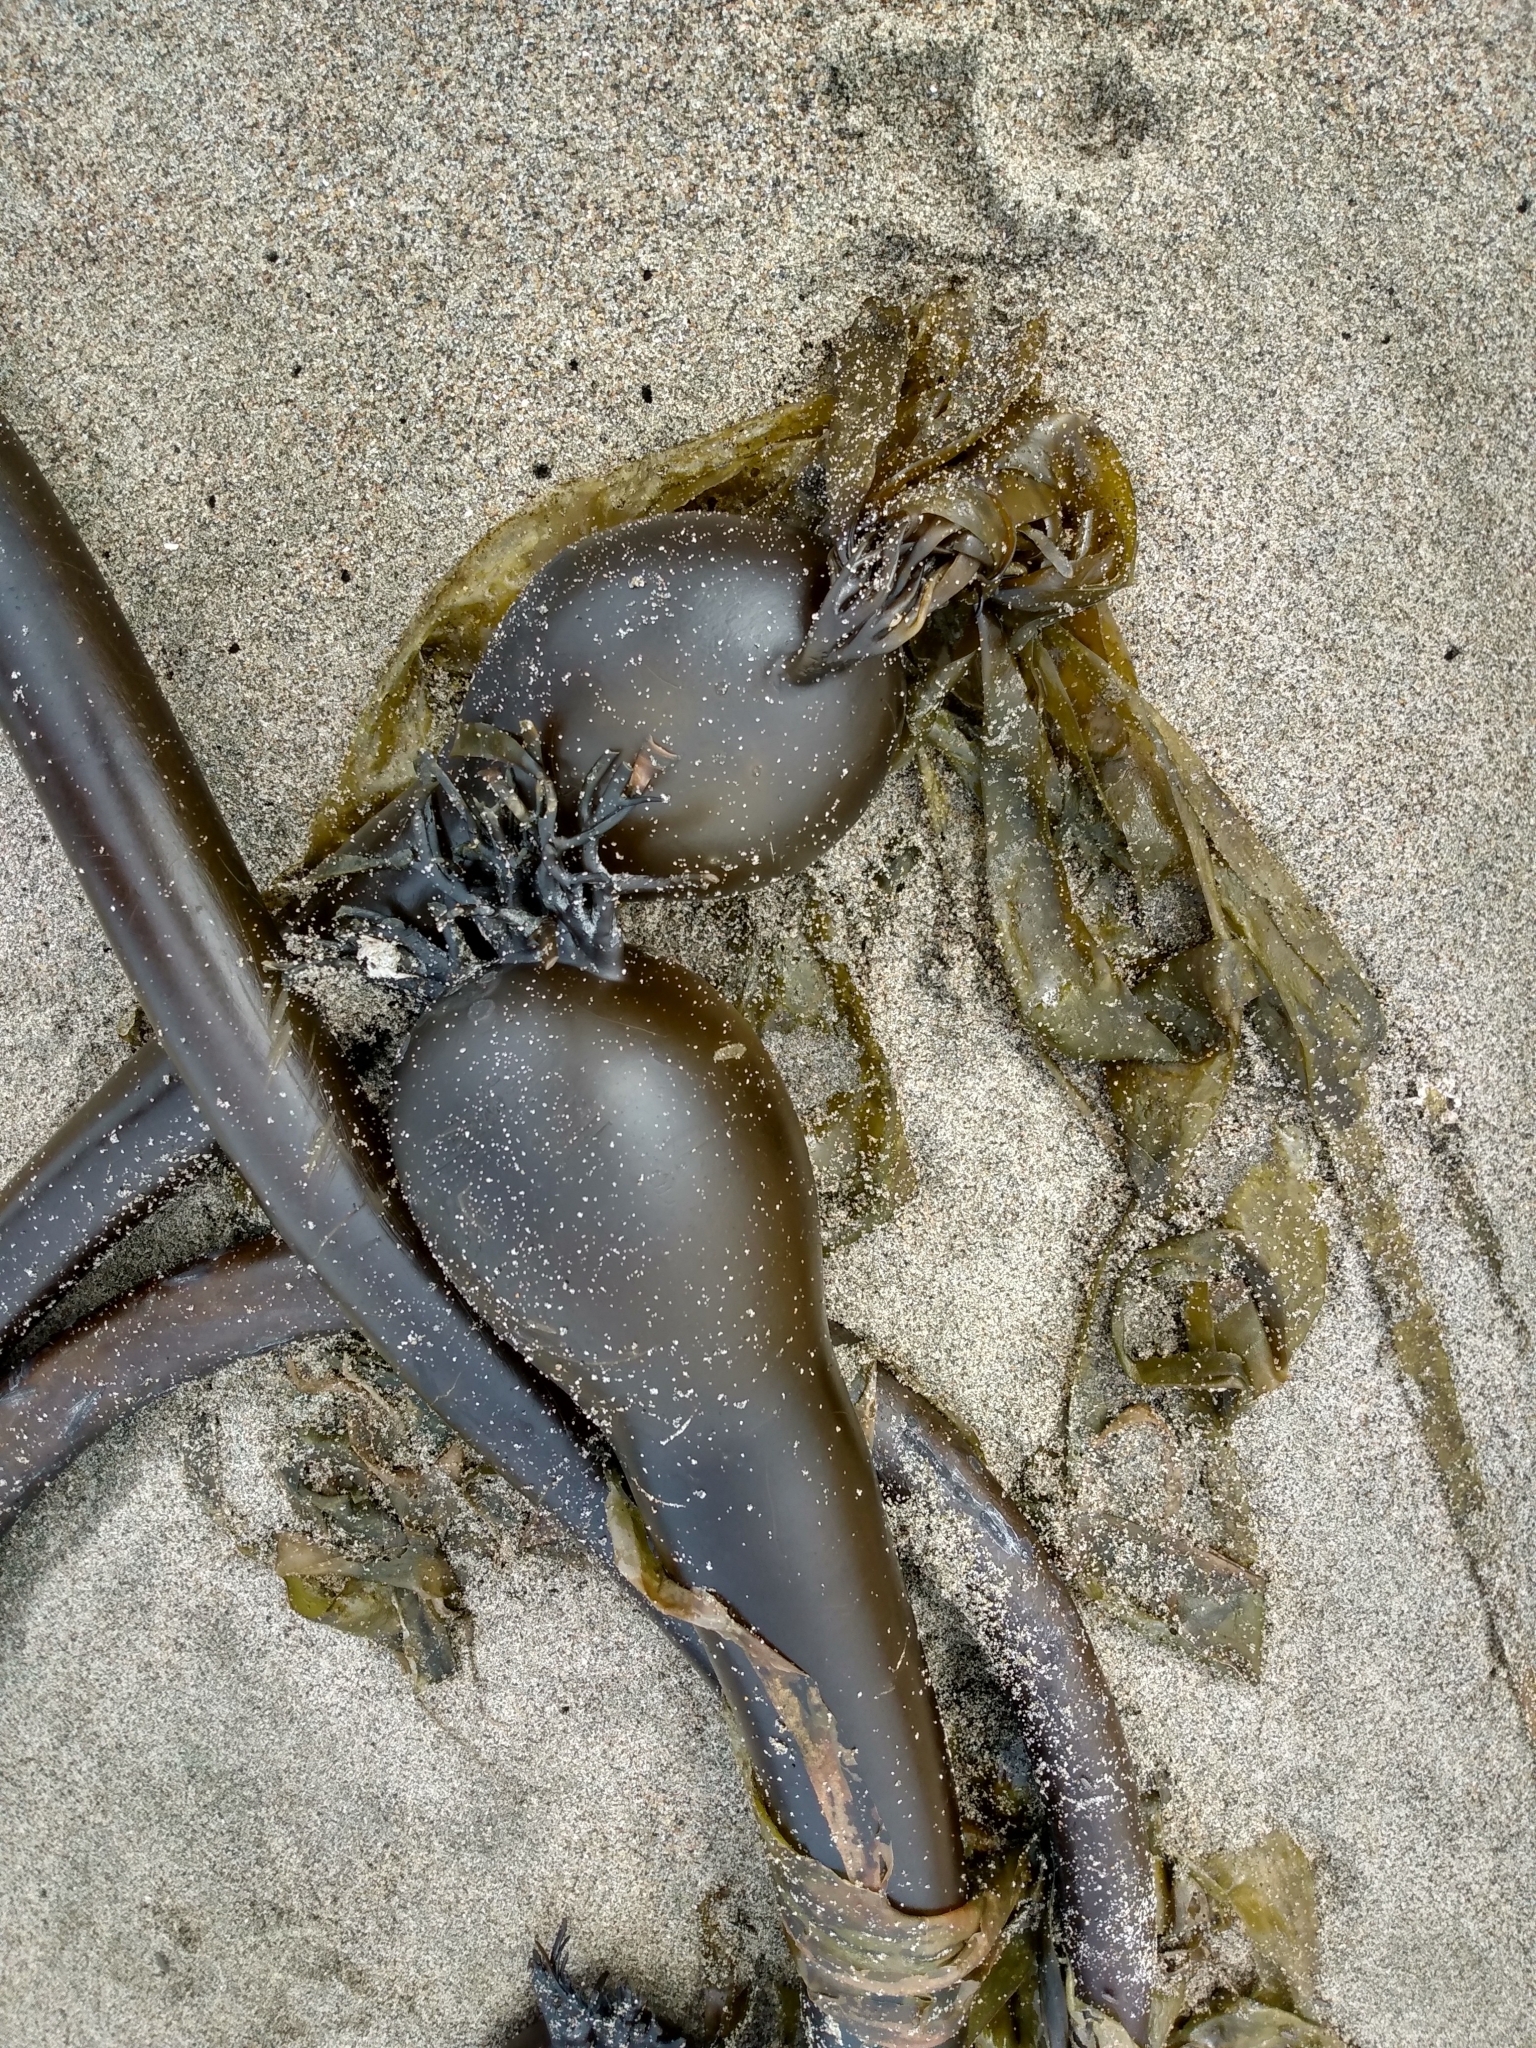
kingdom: Chromista
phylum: Ochrophyta
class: Phaeophyceae
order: Laminariales
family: Laminariaceae
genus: Nereocystis
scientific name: Nereocystis luetkeana
